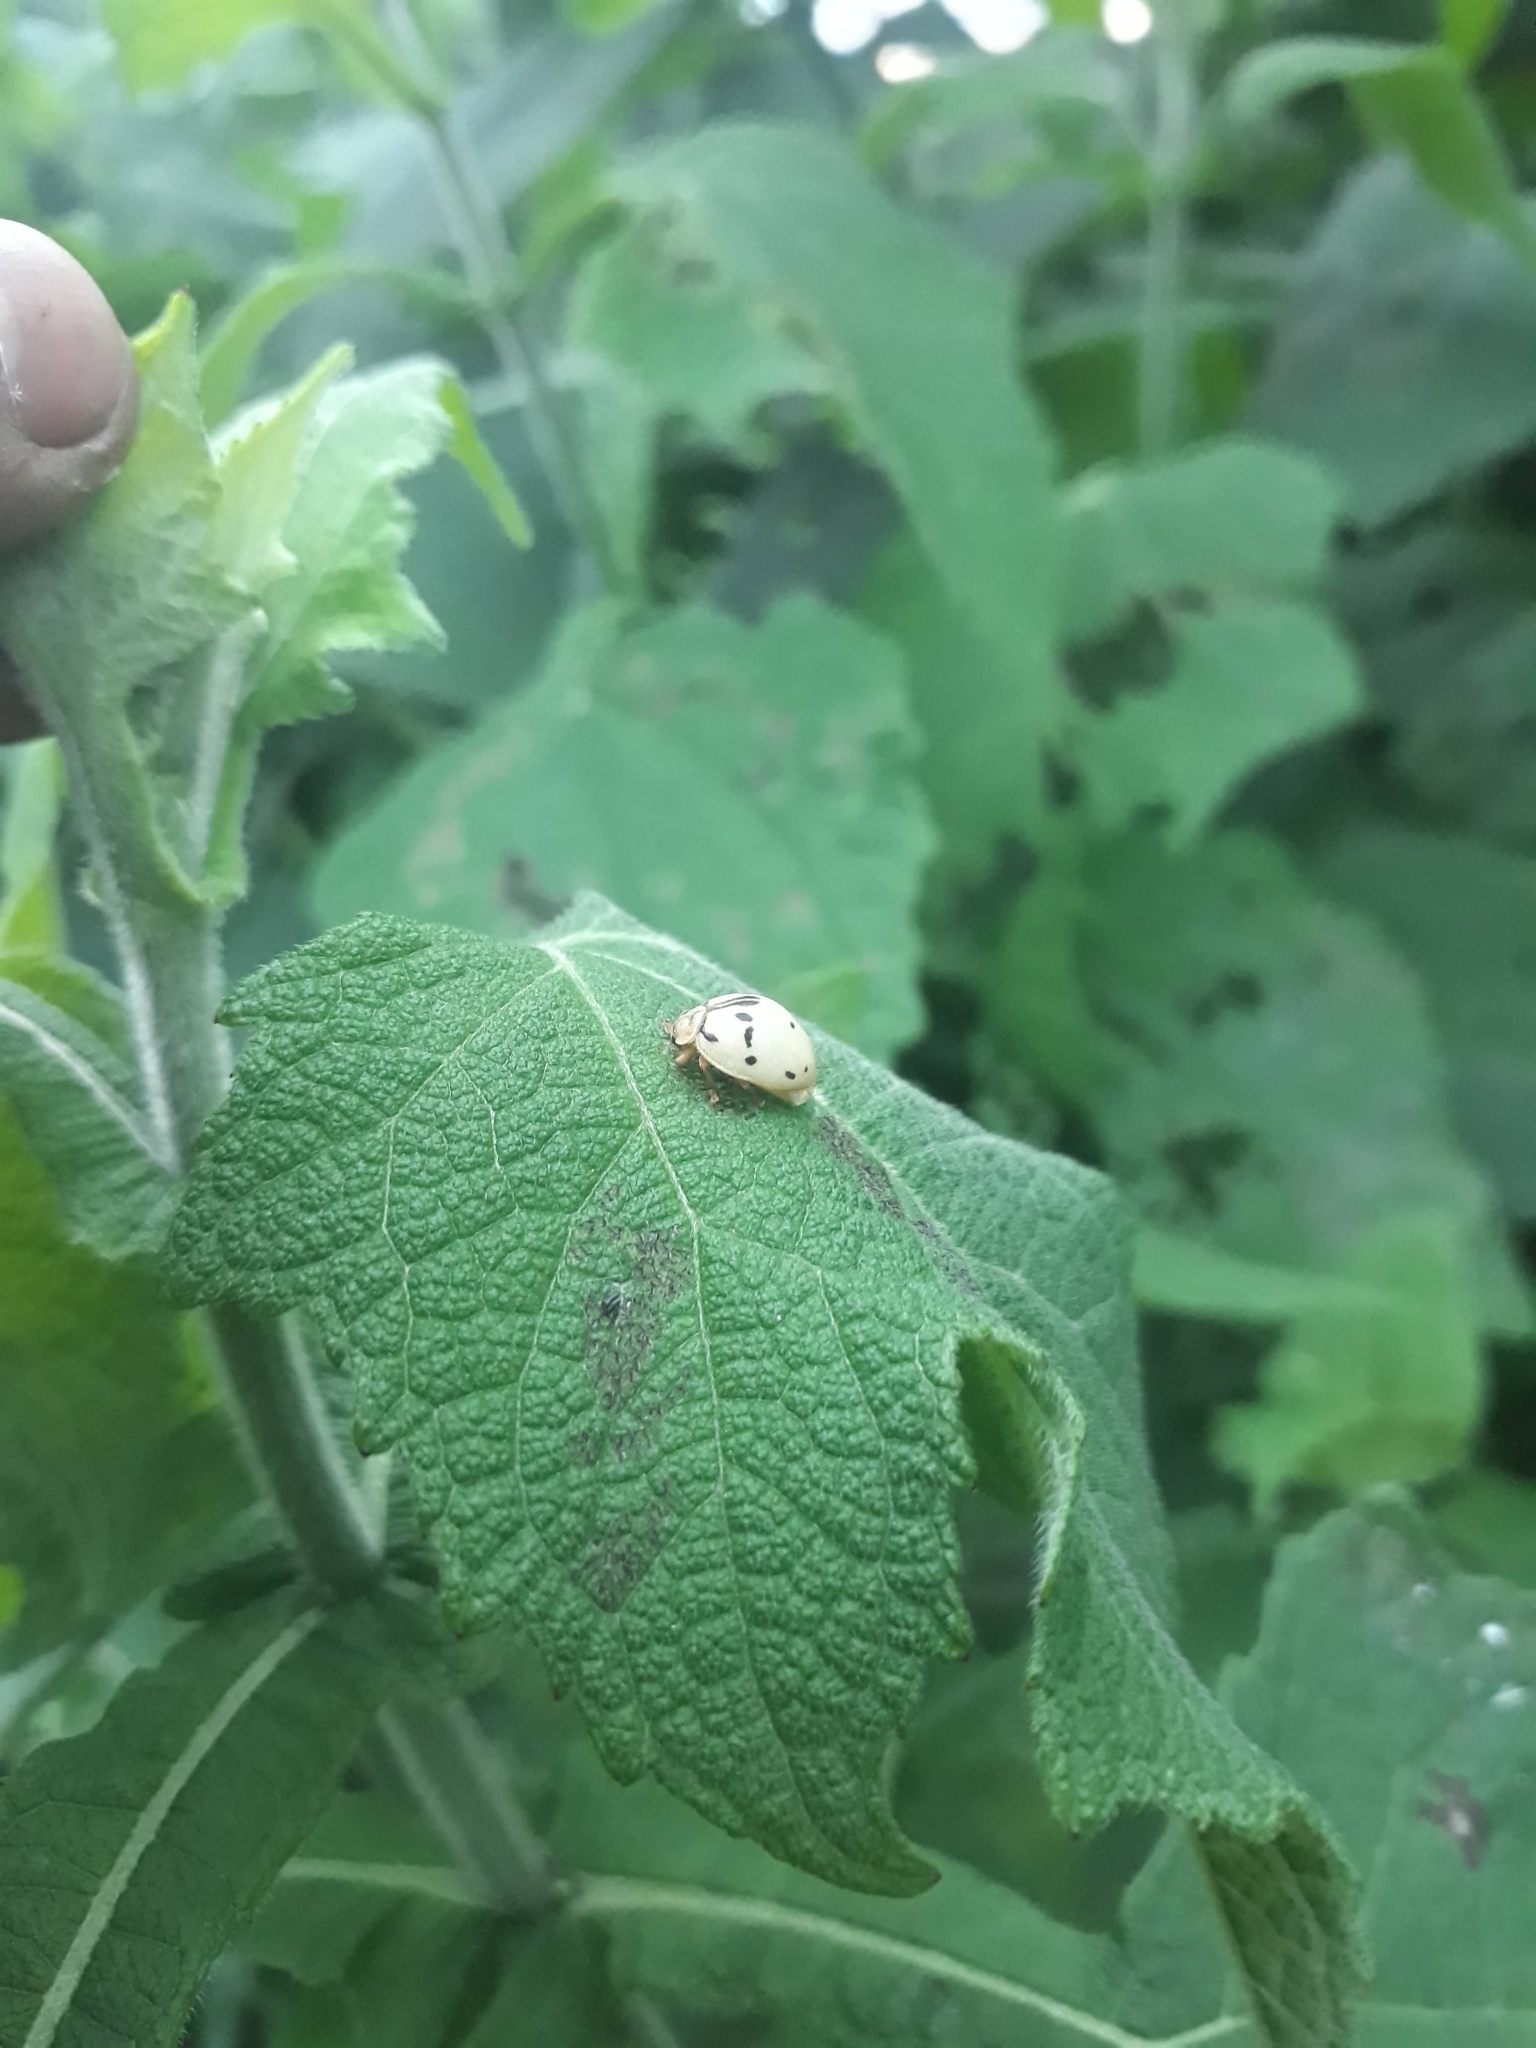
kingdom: Animalia
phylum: Arthropoda
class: Insecta
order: Coleoptera
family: Coccinellidae
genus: Epilachna
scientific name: Epilachna
